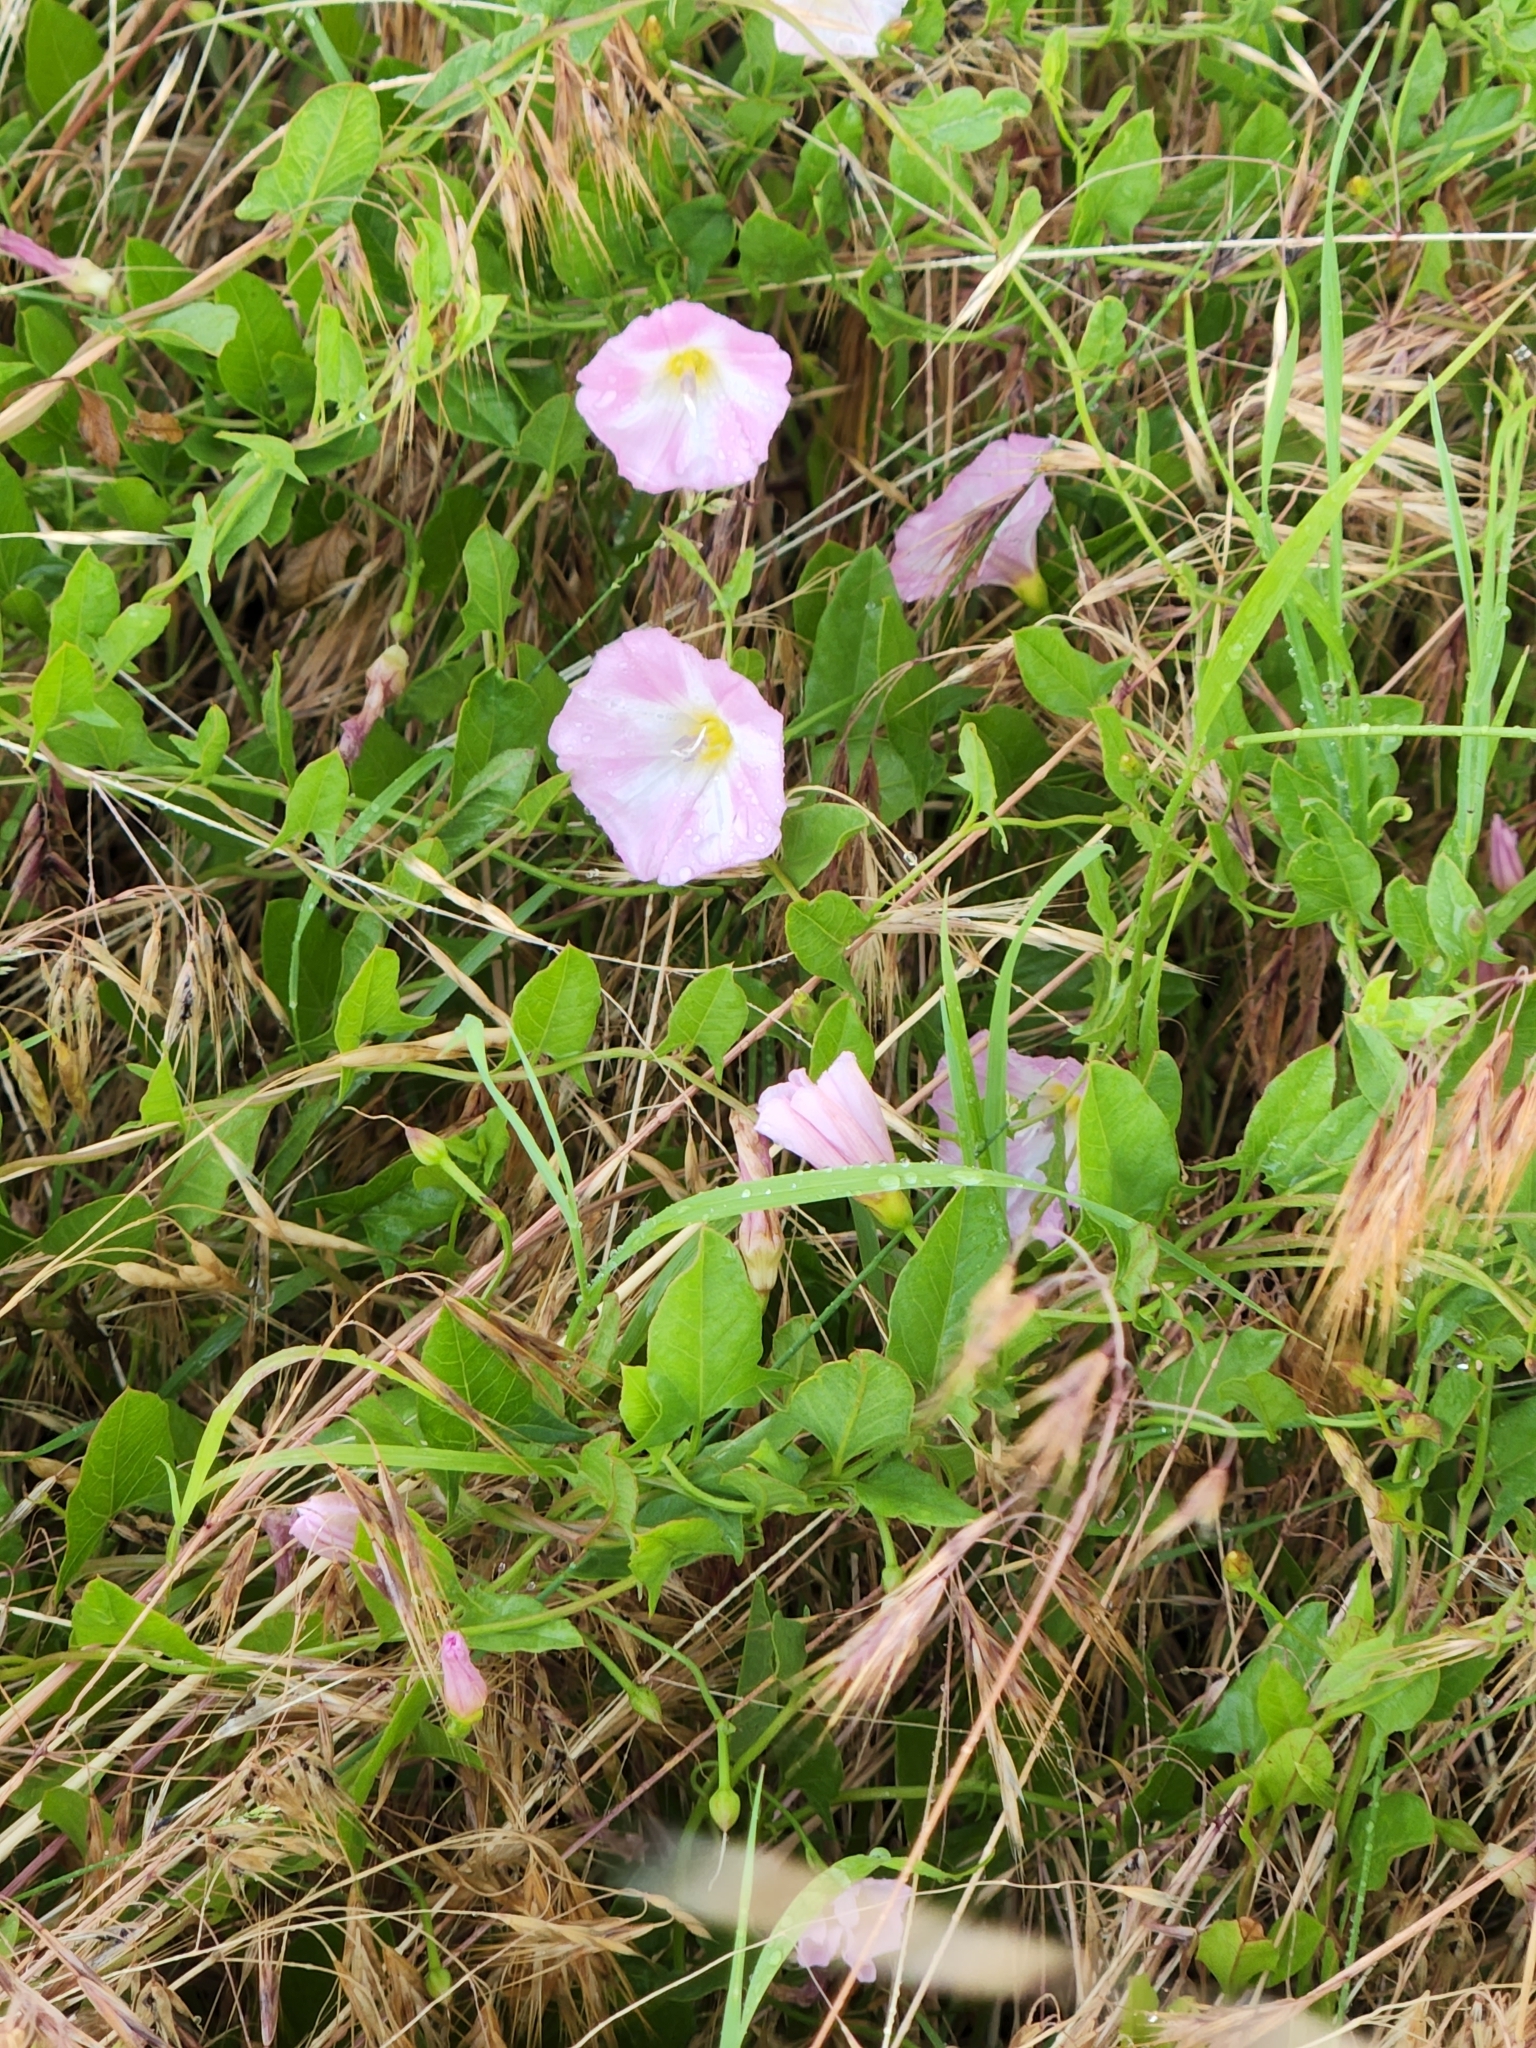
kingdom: Plantae
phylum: Tracheophyta
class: Magnoliopsida
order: Solanales
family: Convolvulaceae
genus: Convolvulus
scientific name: Convolvulus arvensis
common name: Field bindweed
